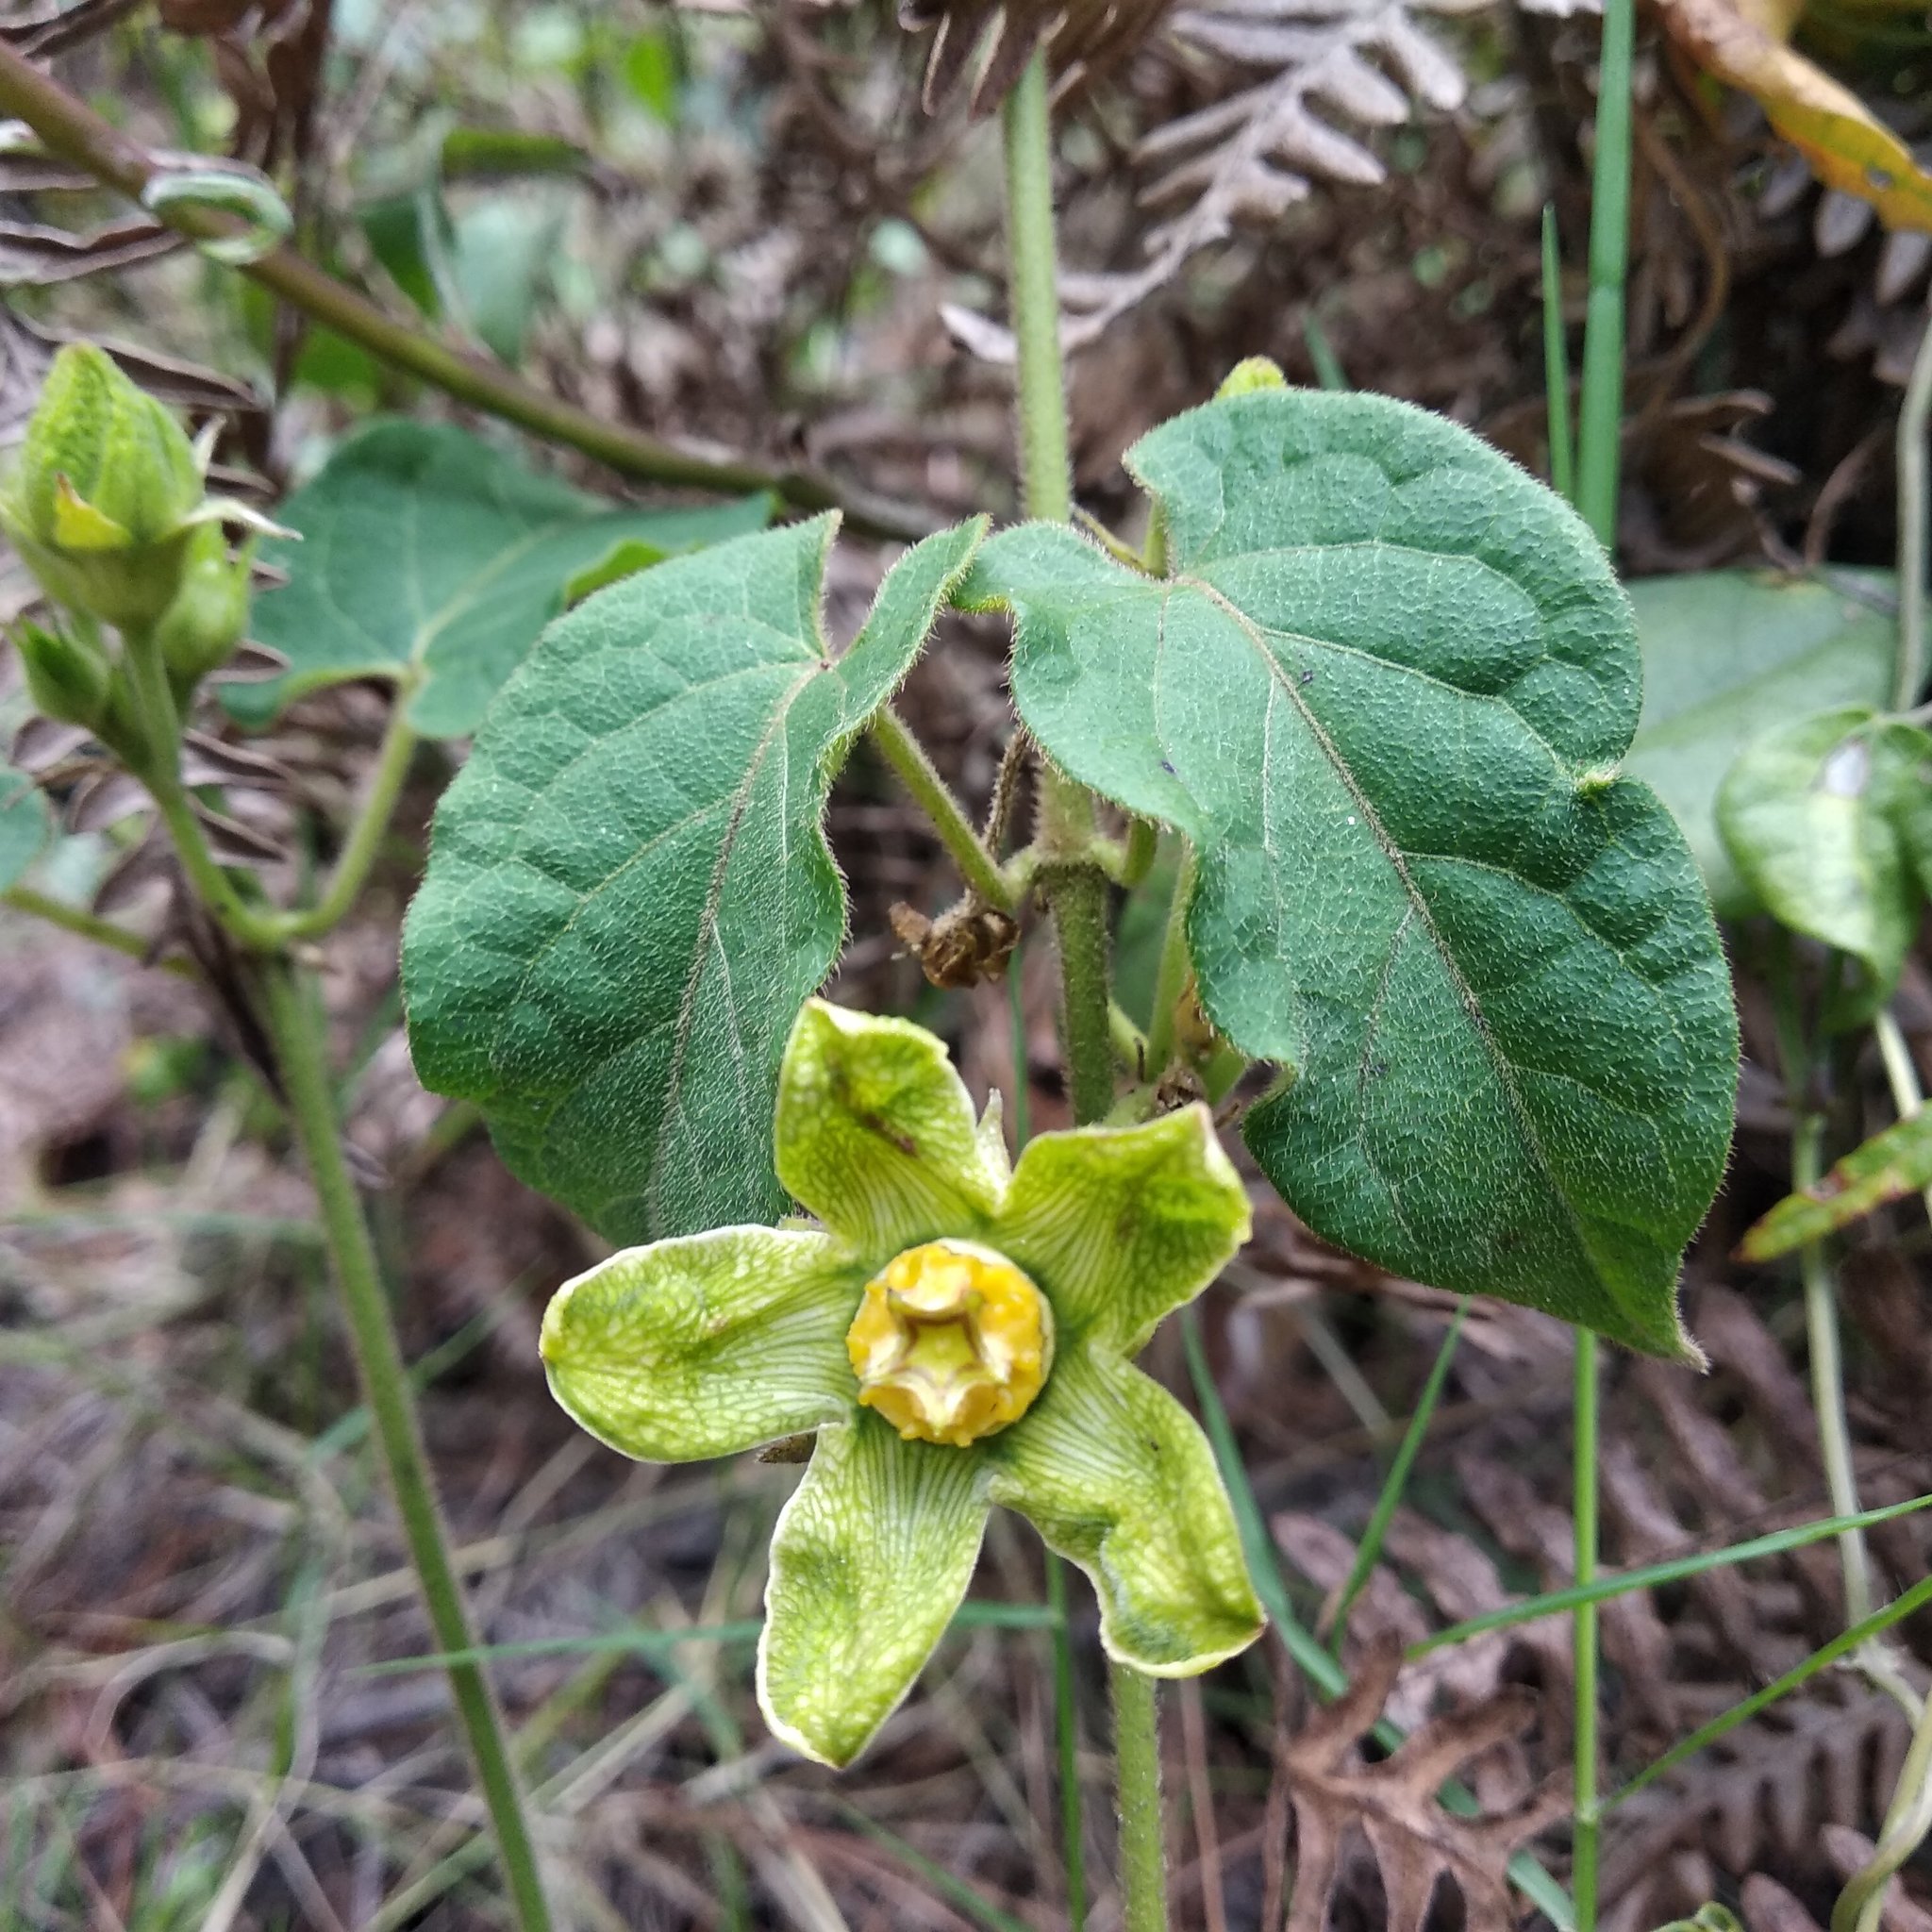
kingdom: Plantae
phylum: Tracheophyta
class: Magnoliopsida
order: Gentianales
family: Apocynaceae
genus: Gonolobus
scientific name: Gonolobus chloranthus
